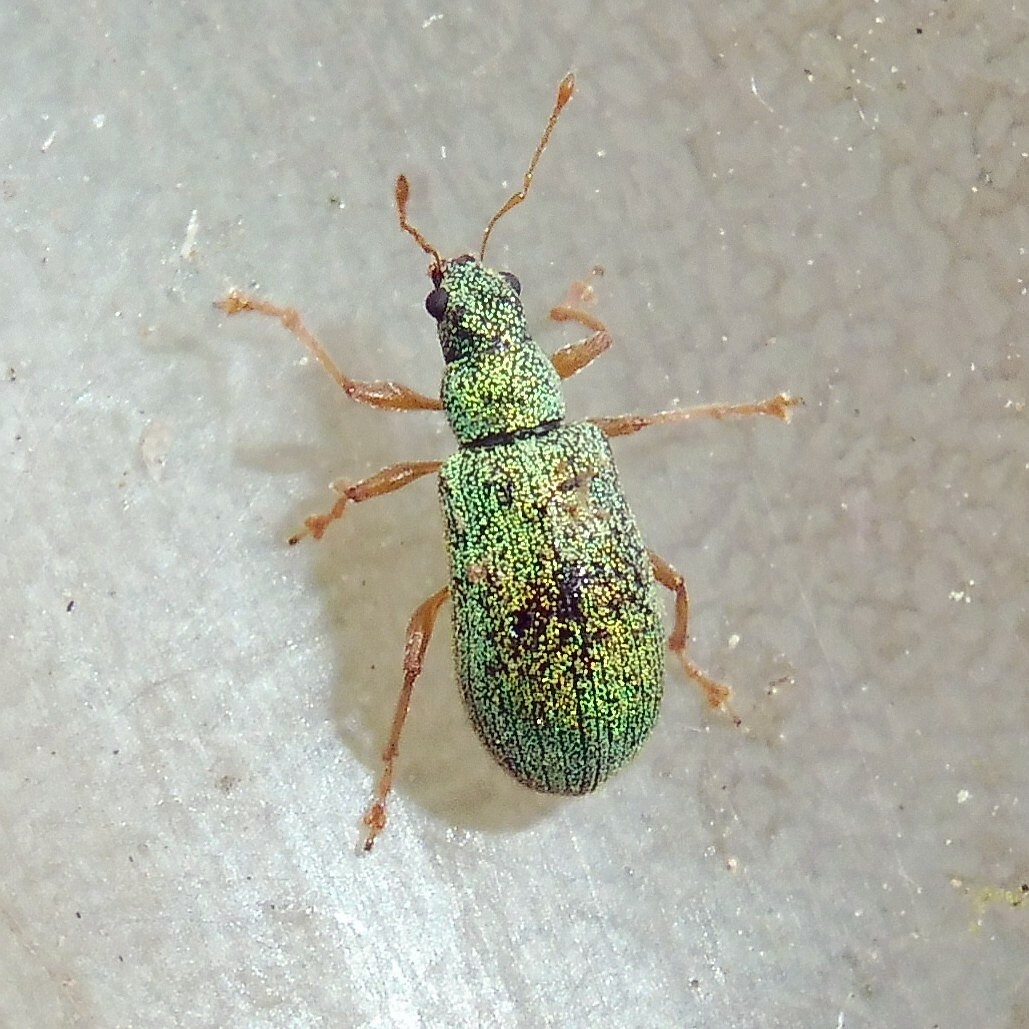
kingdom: Animalia
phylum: Arthropoda
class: Insecta
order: Coleoptera
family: Curculionidae
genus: Polydrusus
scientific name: Polydrusus pterygomalis
